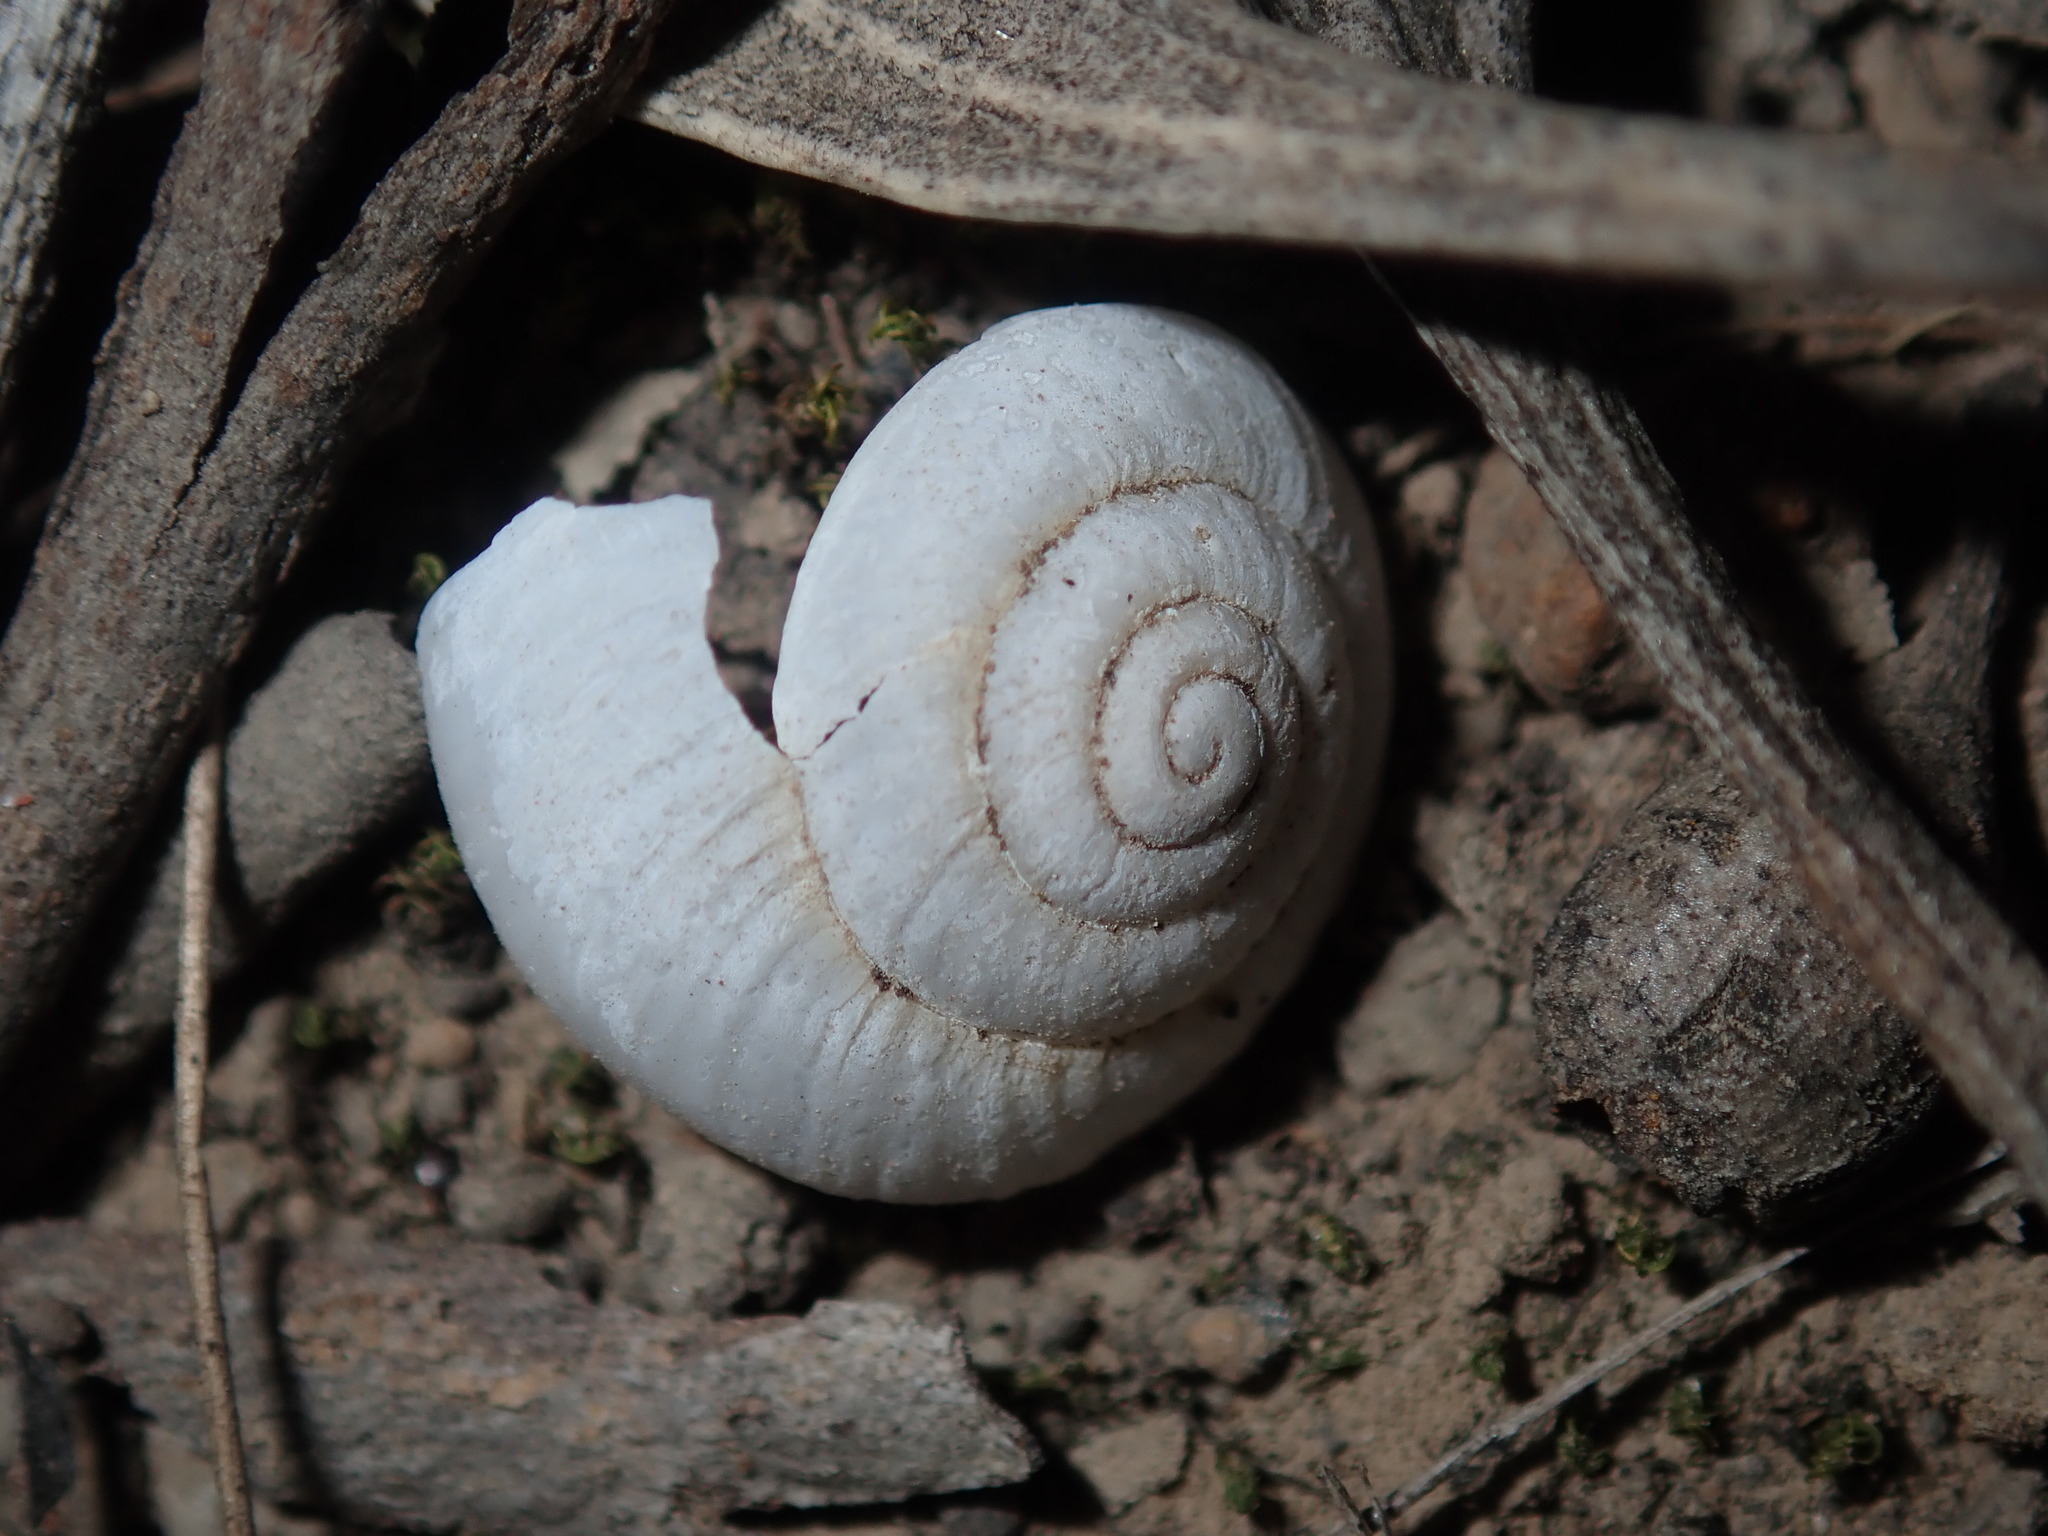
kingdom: Animalia
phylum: Mollusca
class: Gastropoda
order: Stylommatophora
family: Camaenidae
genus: Sauroconcha
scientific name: Sauroconcha sheai
